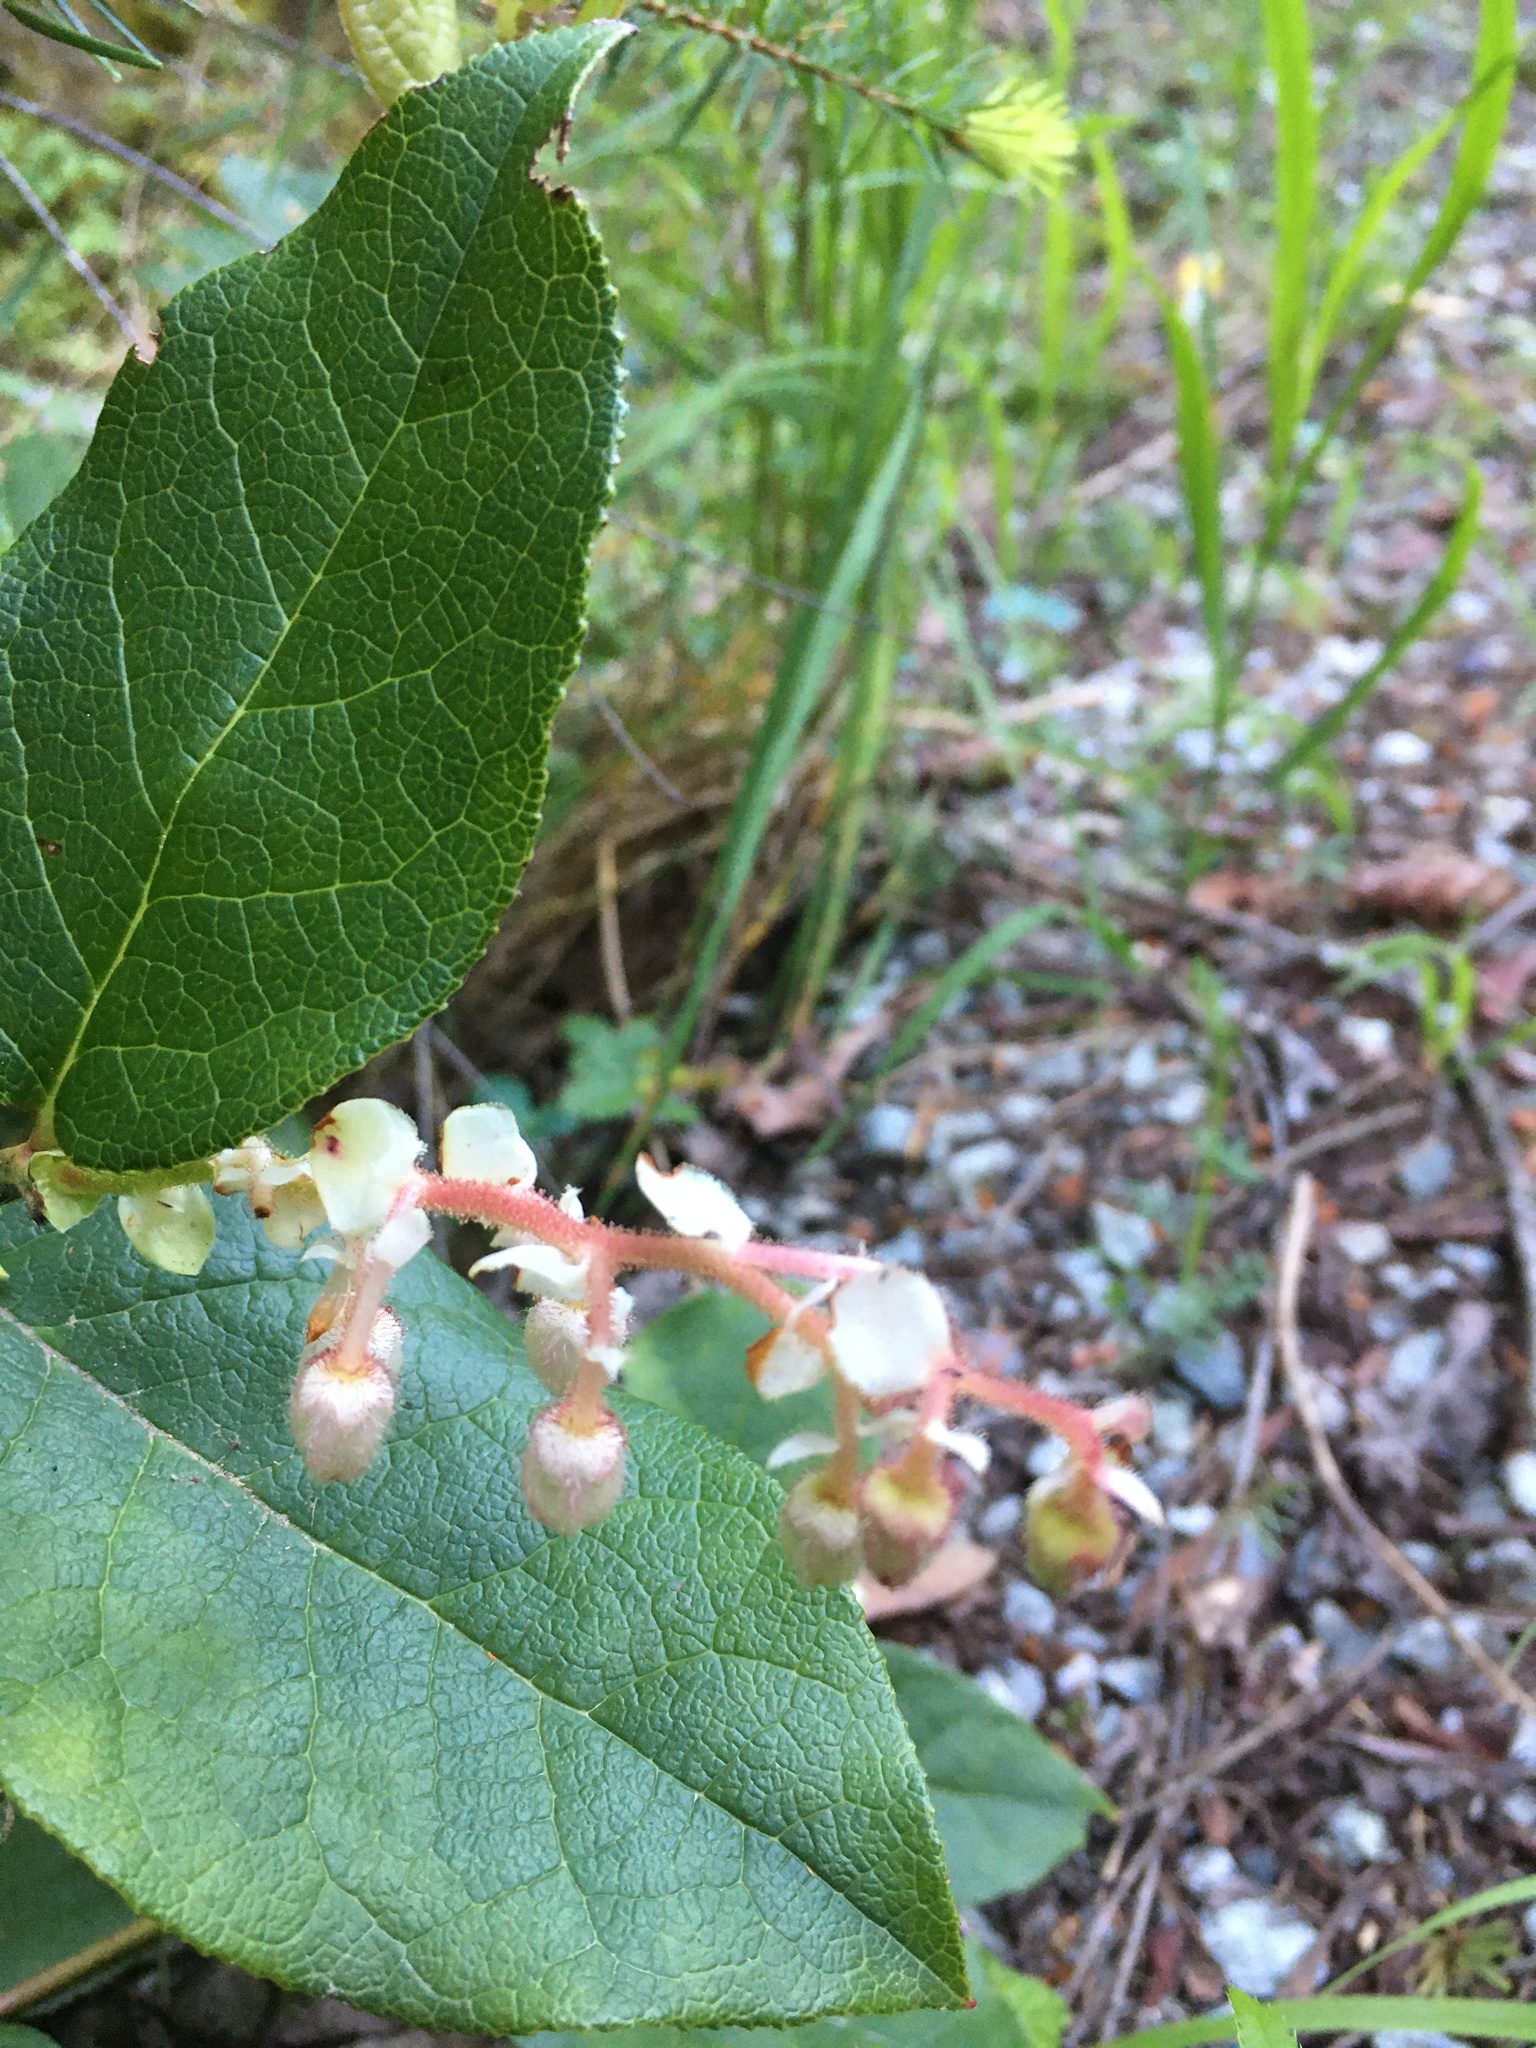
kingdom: Plantae
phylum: Tracheophyta
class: Magnoliopsida
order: Ericales
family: Ericaceae
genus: Gaultheria
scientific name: Gaultheria shallon
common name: Shallon
